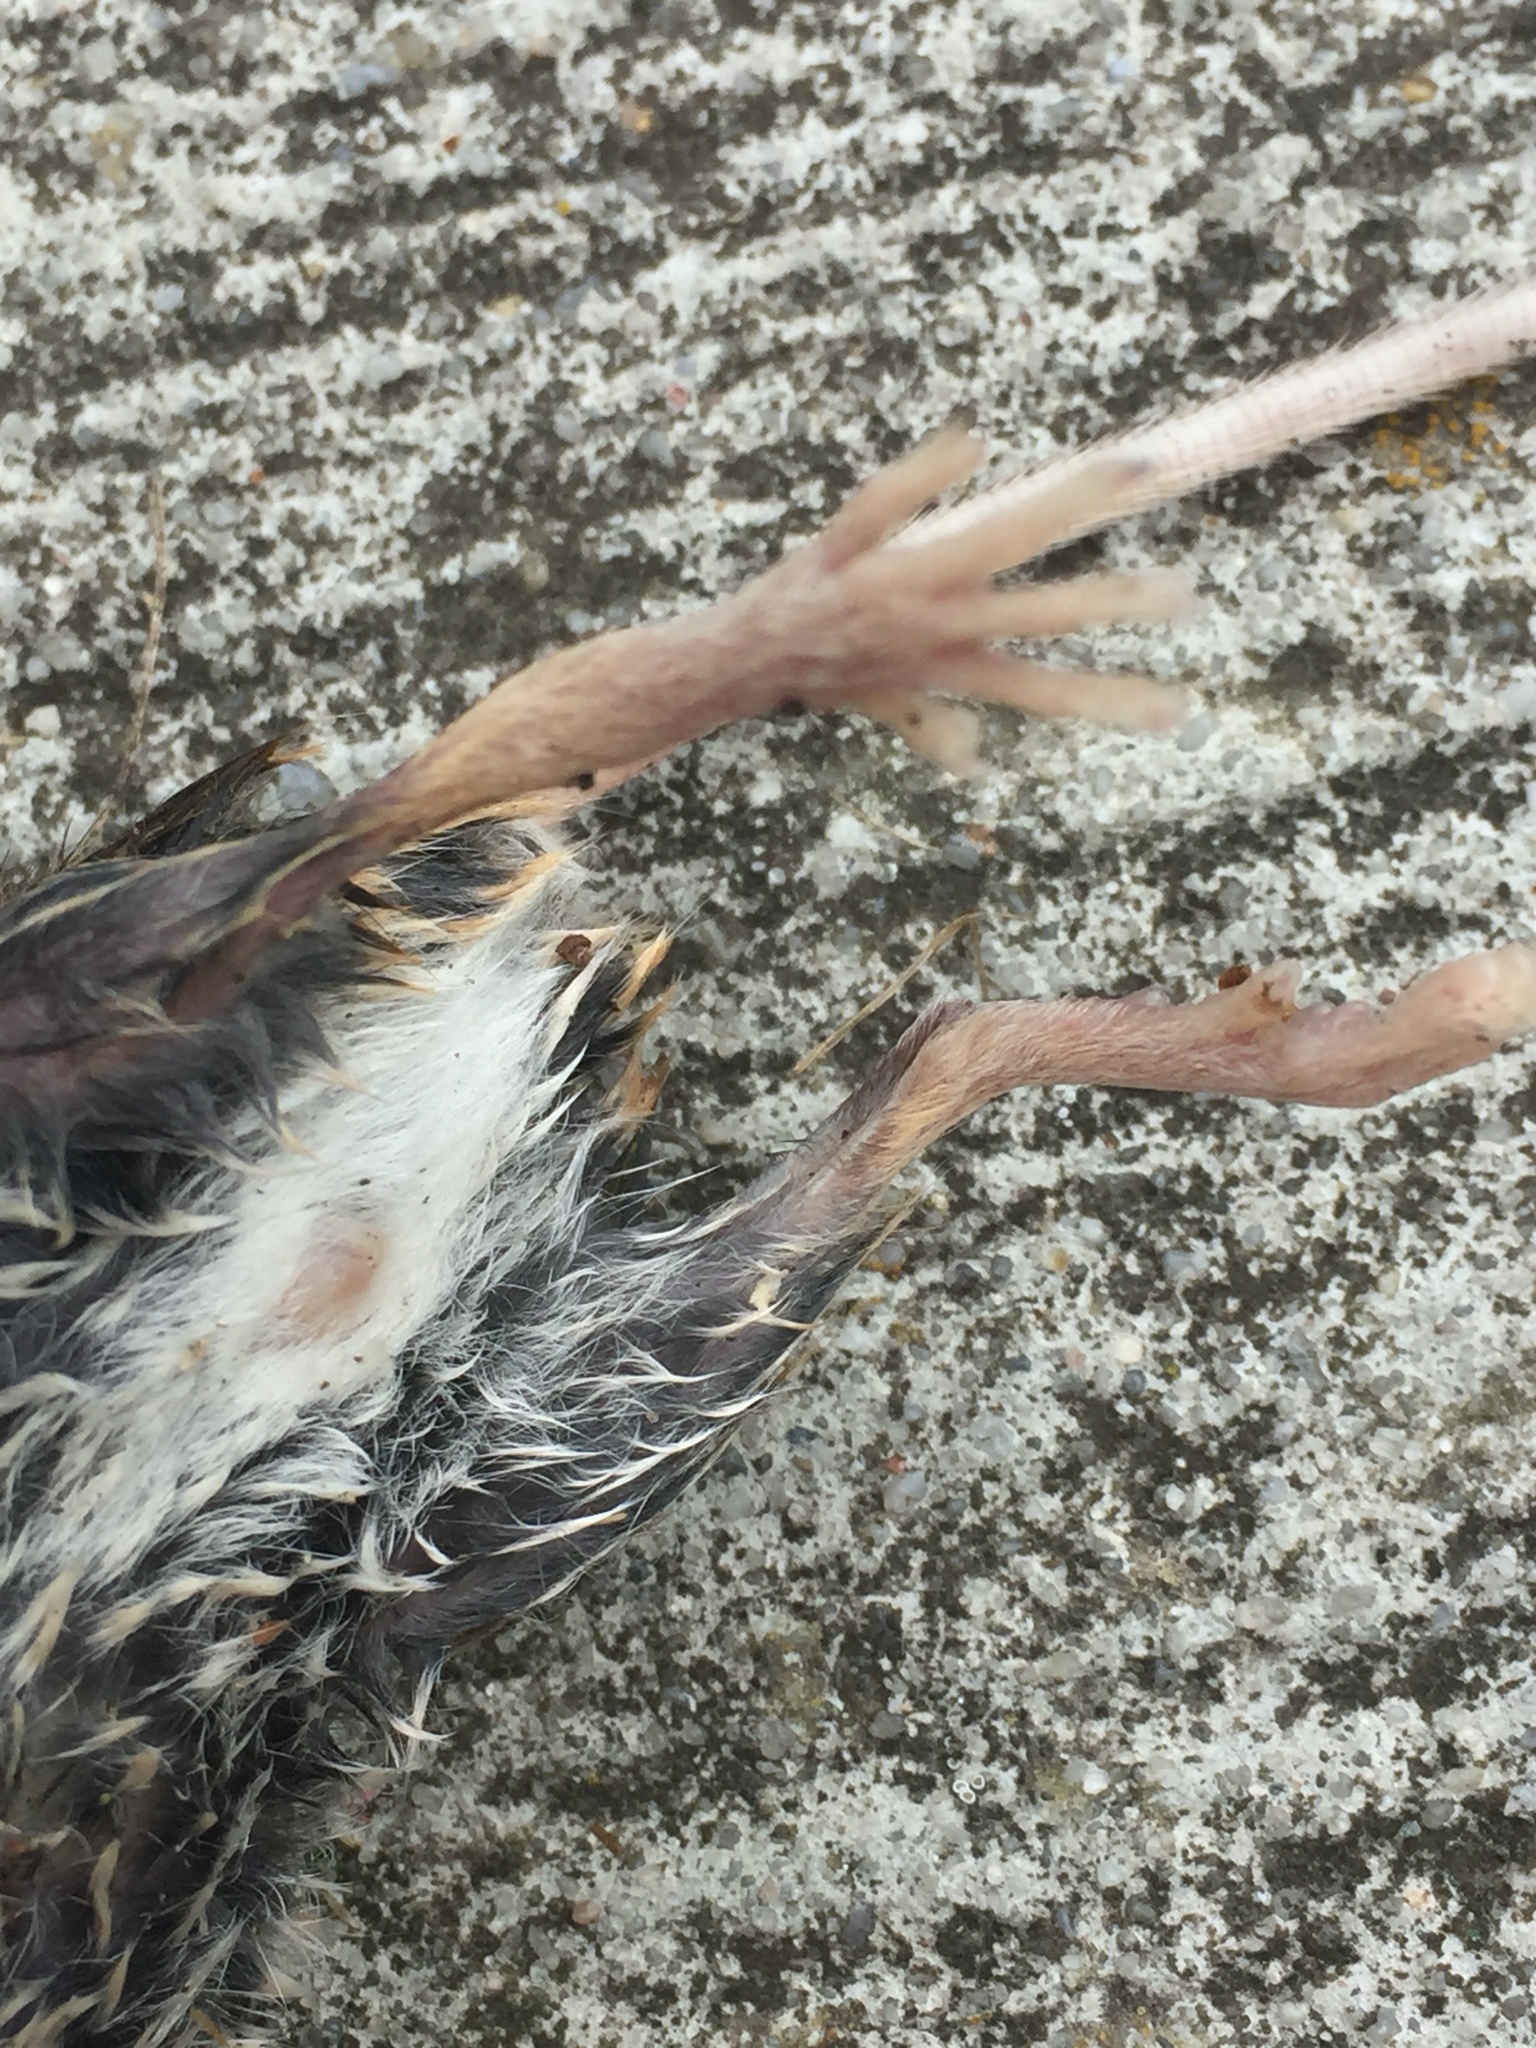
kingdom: Animalia
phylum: Chordata
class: Mammalia
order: Rodentia
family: Muridae
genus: Apodemus
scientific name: Apodemus sylvaticus
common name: Wood mouse
